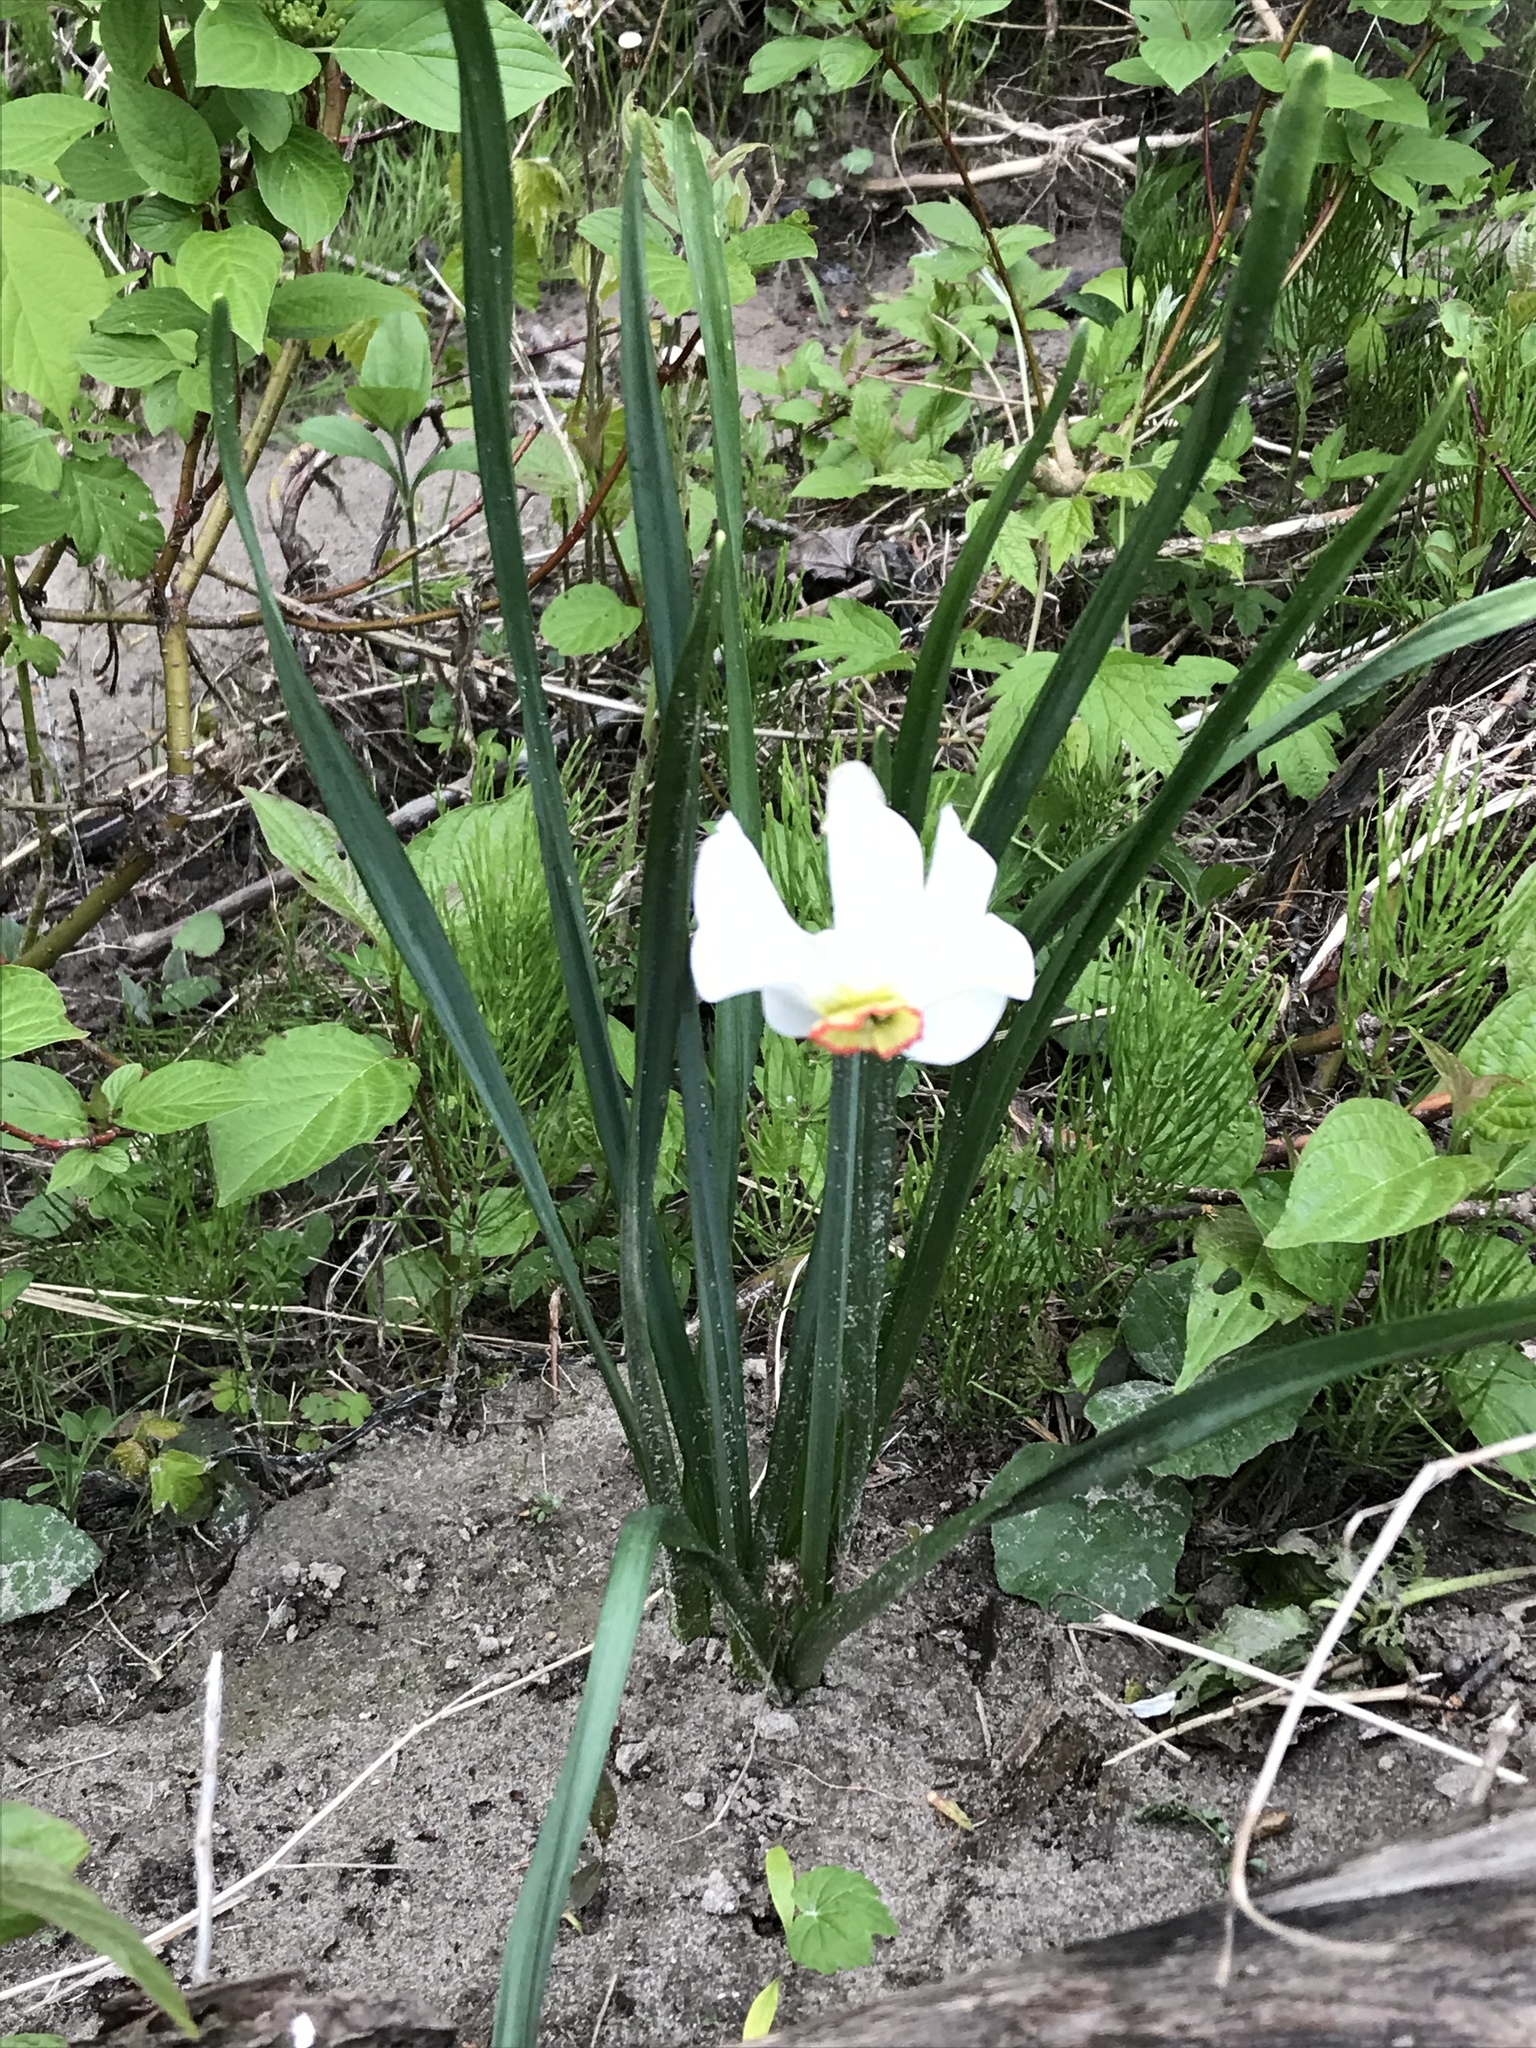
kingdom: Plantae
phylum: Tracheophyta
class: Liliopsida
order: Asparagales
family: Amaryllidaceae
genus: Narcissus
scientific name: Narcissus poeticus
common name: Pheasant's-eye daffodil
